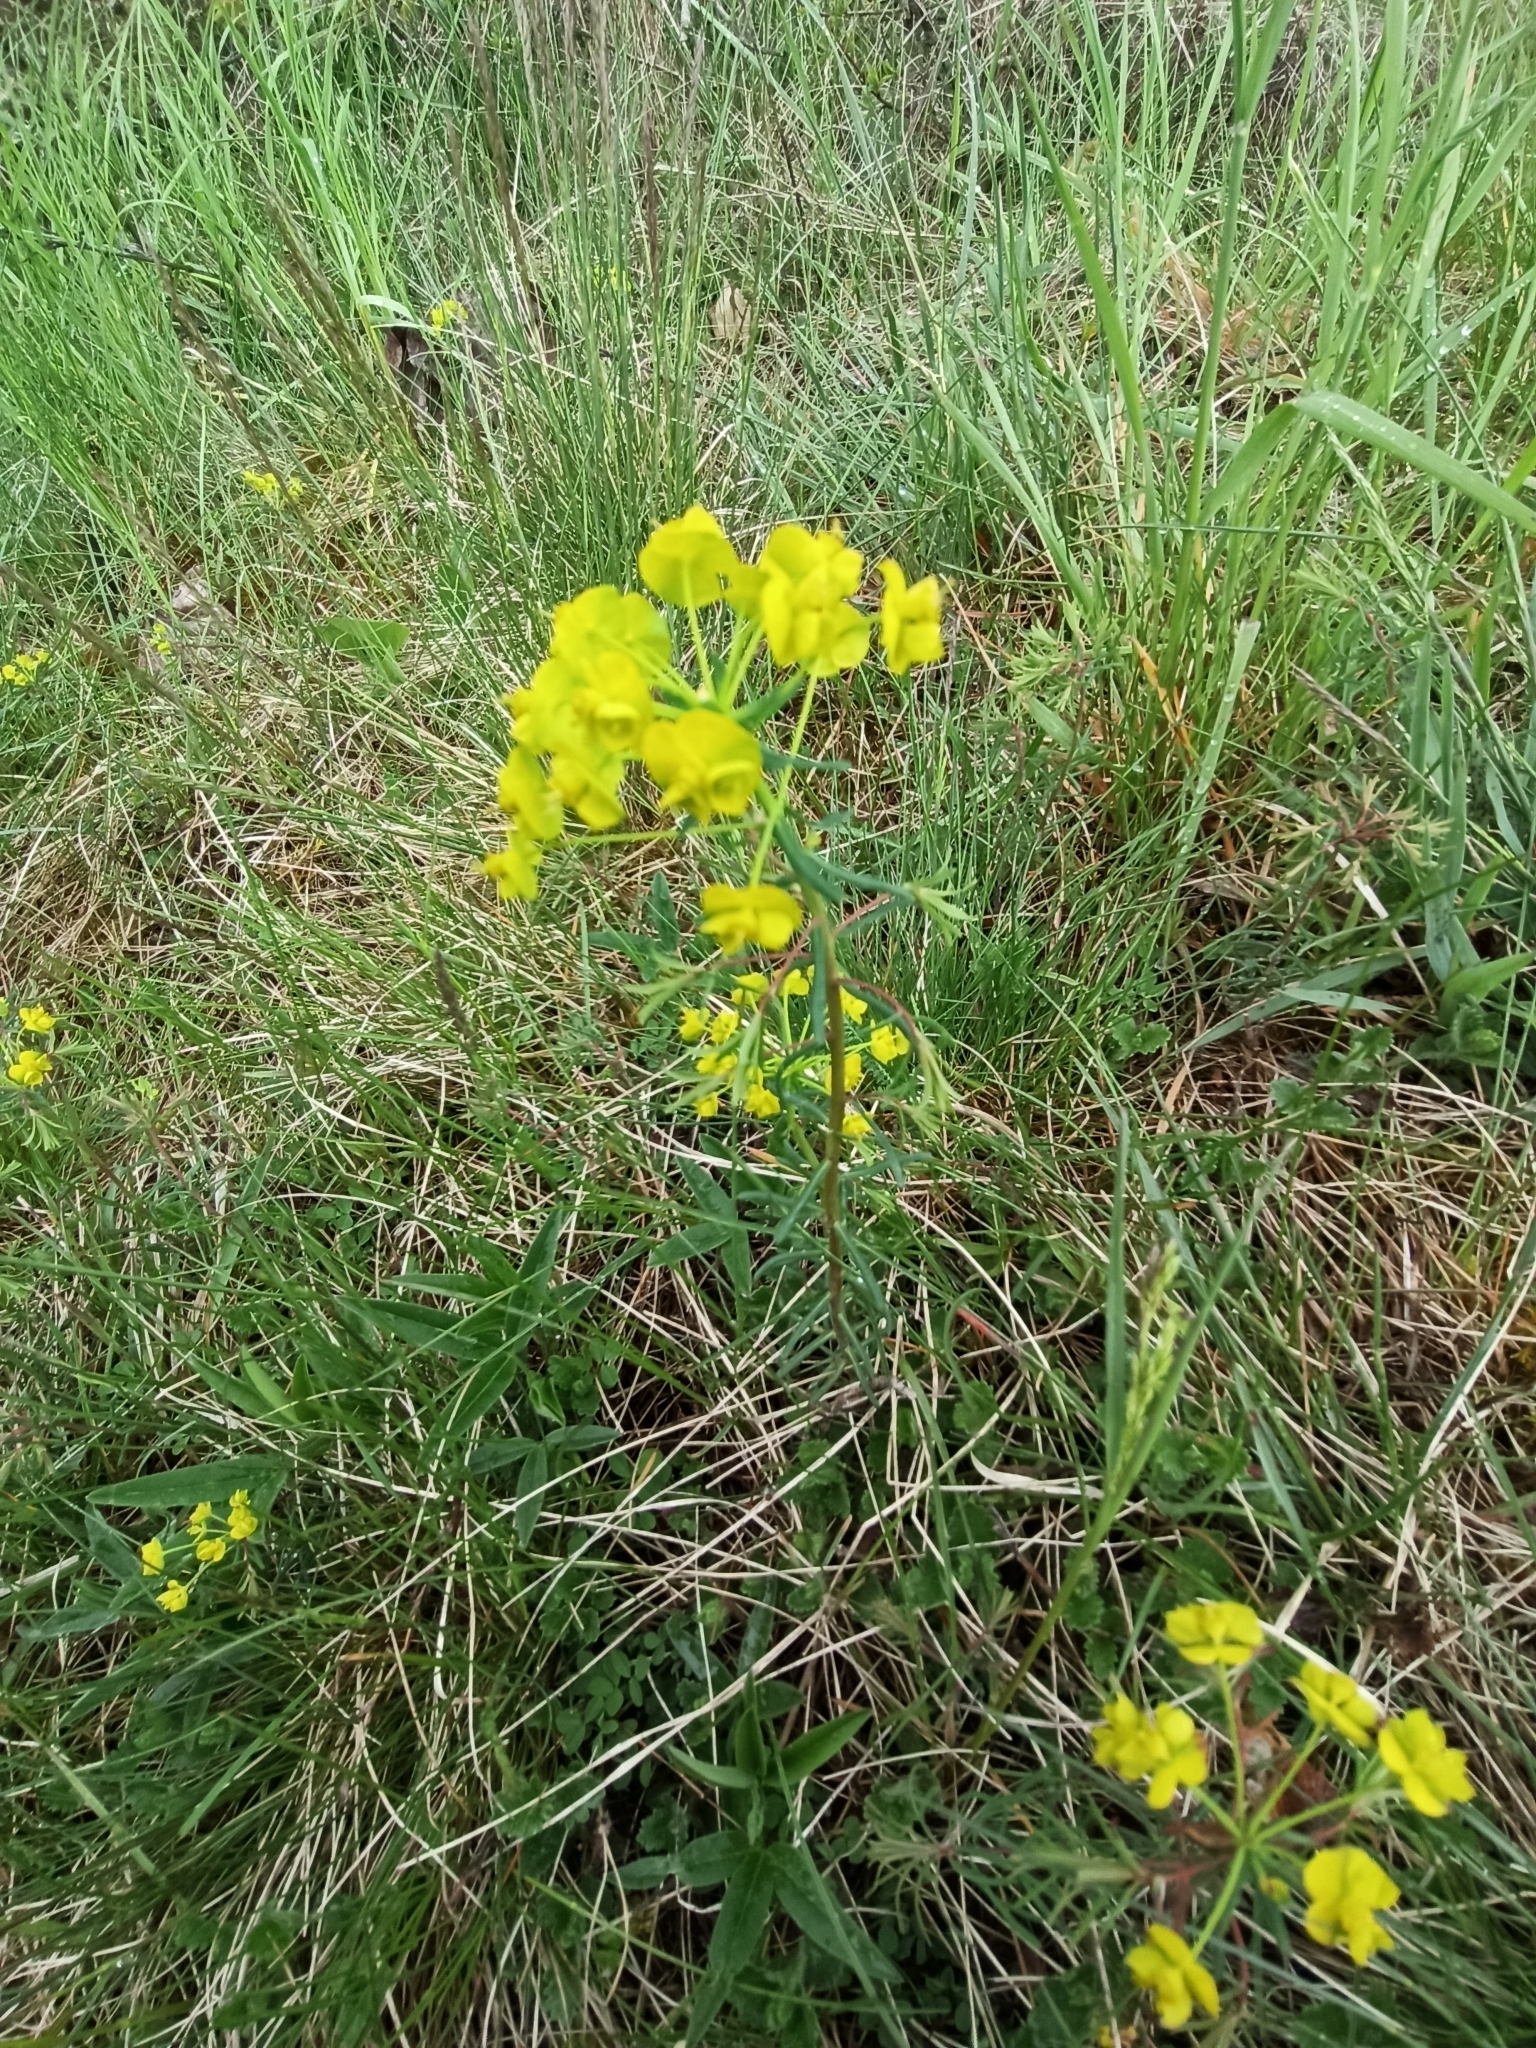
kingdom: Plantae
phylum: Tracheophyta
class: Magnoliopsida
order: Malpighiales
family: Euphorbiaceae
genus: Euphorbia
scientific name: Euphorbia cyparissias
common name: Cypress spurge
